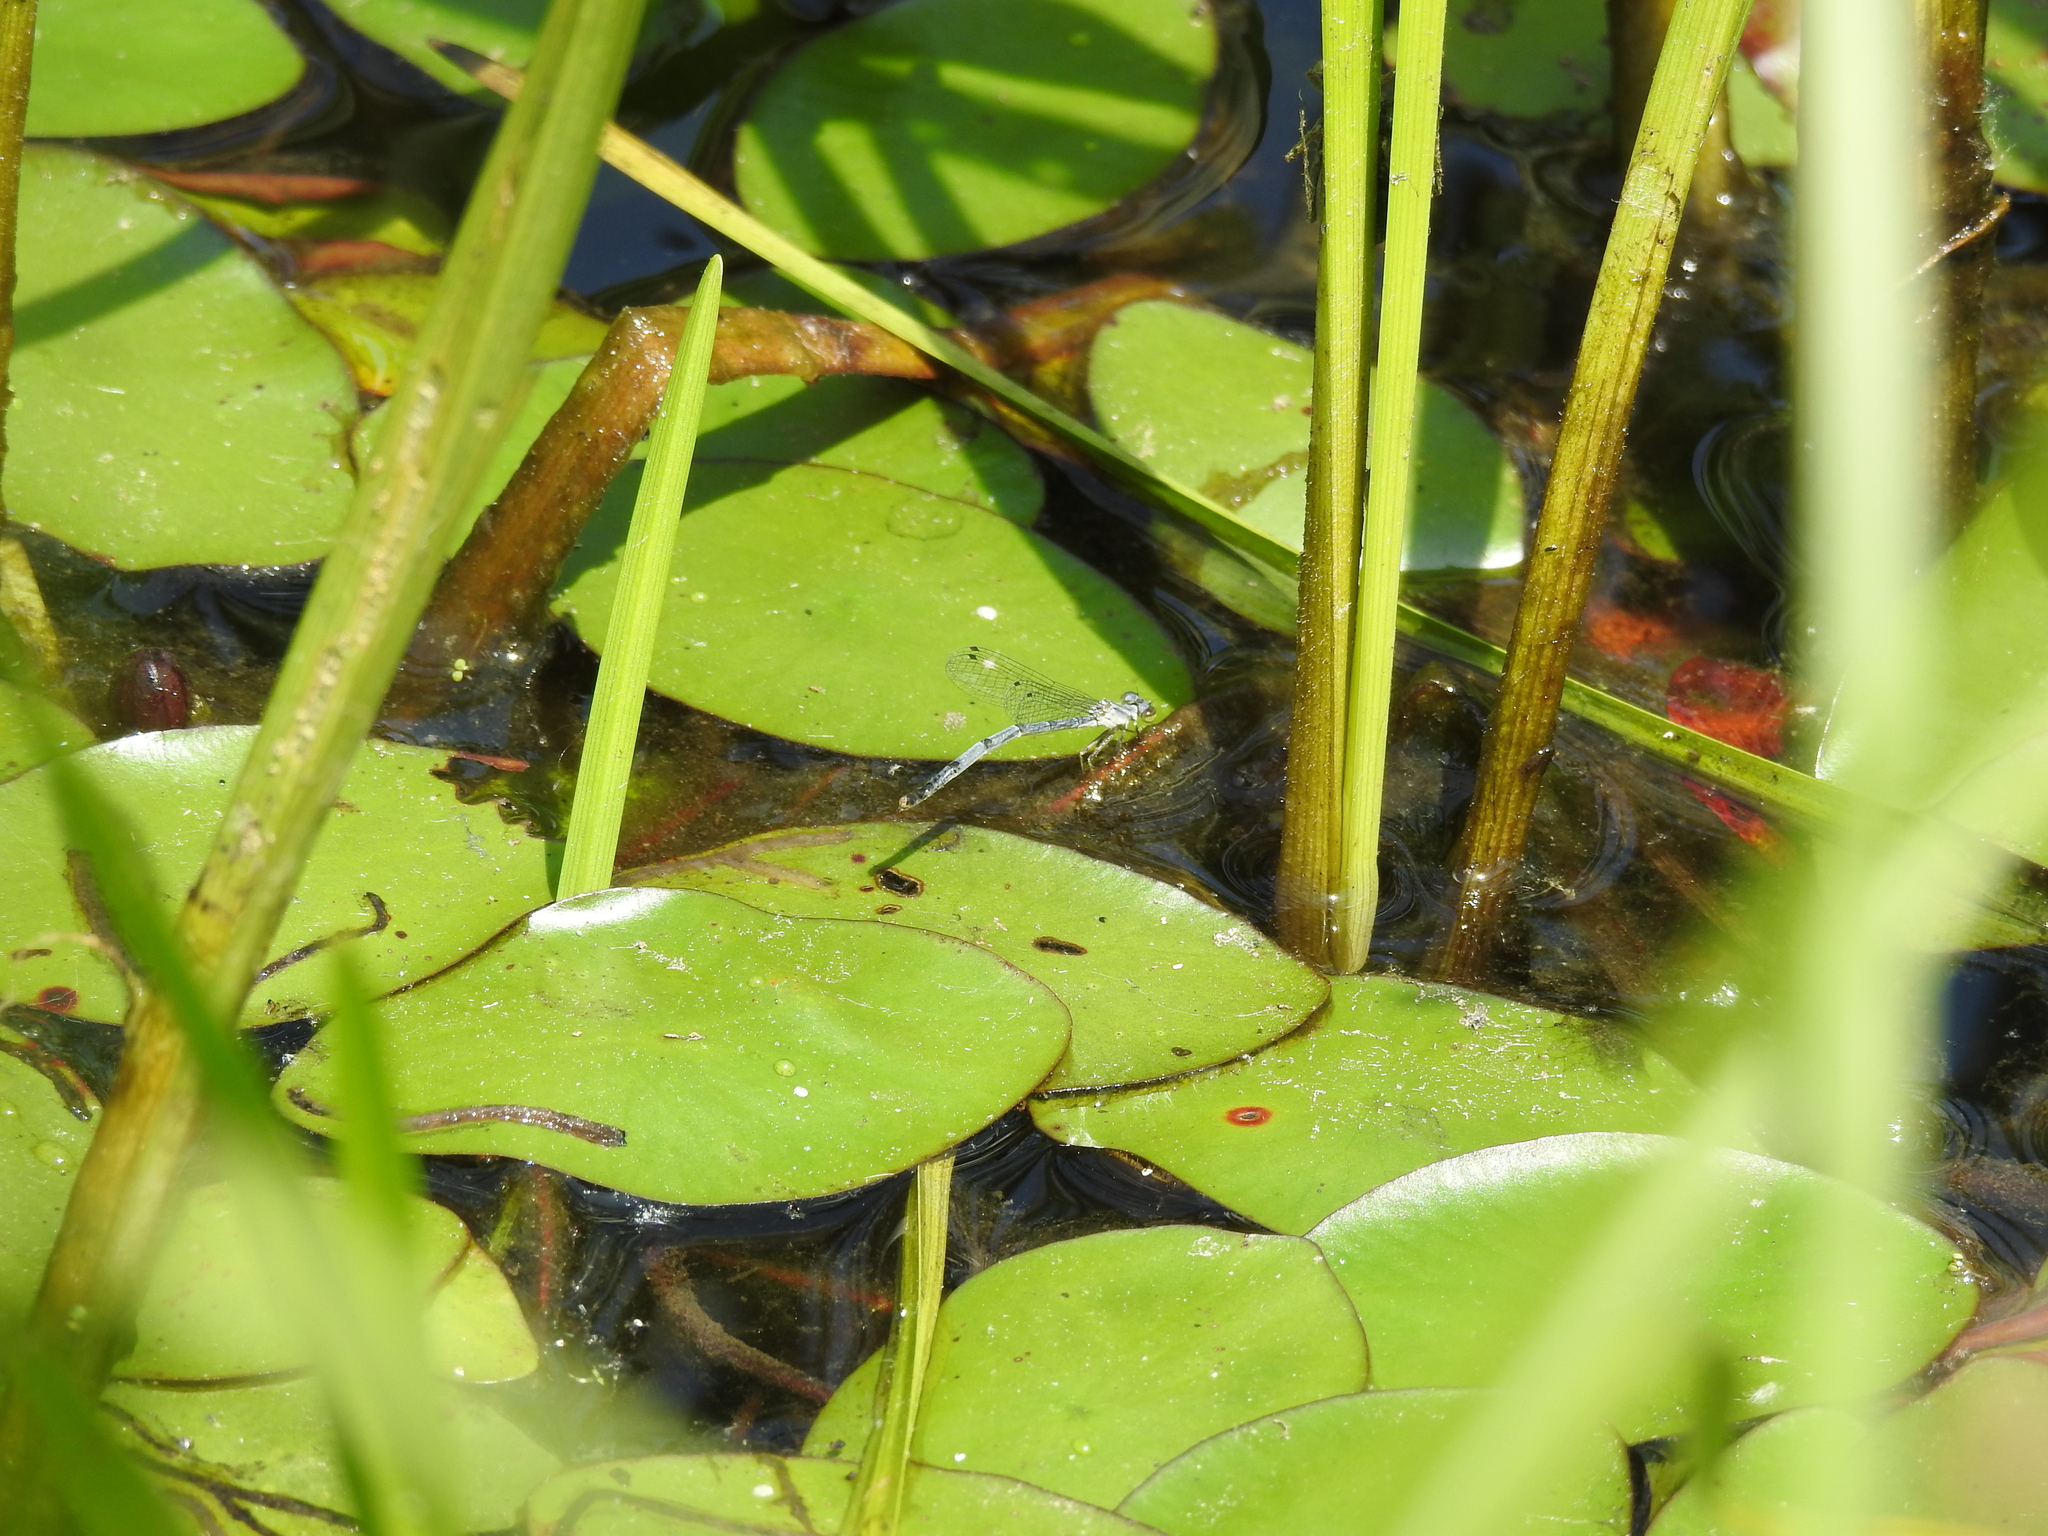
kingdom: Animalia
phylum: Arthropoda
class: Insecta
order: Odonata
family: Coenagrionidae
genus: Ischnura
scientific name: Ischnura verticalis
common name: Eastern forktail
